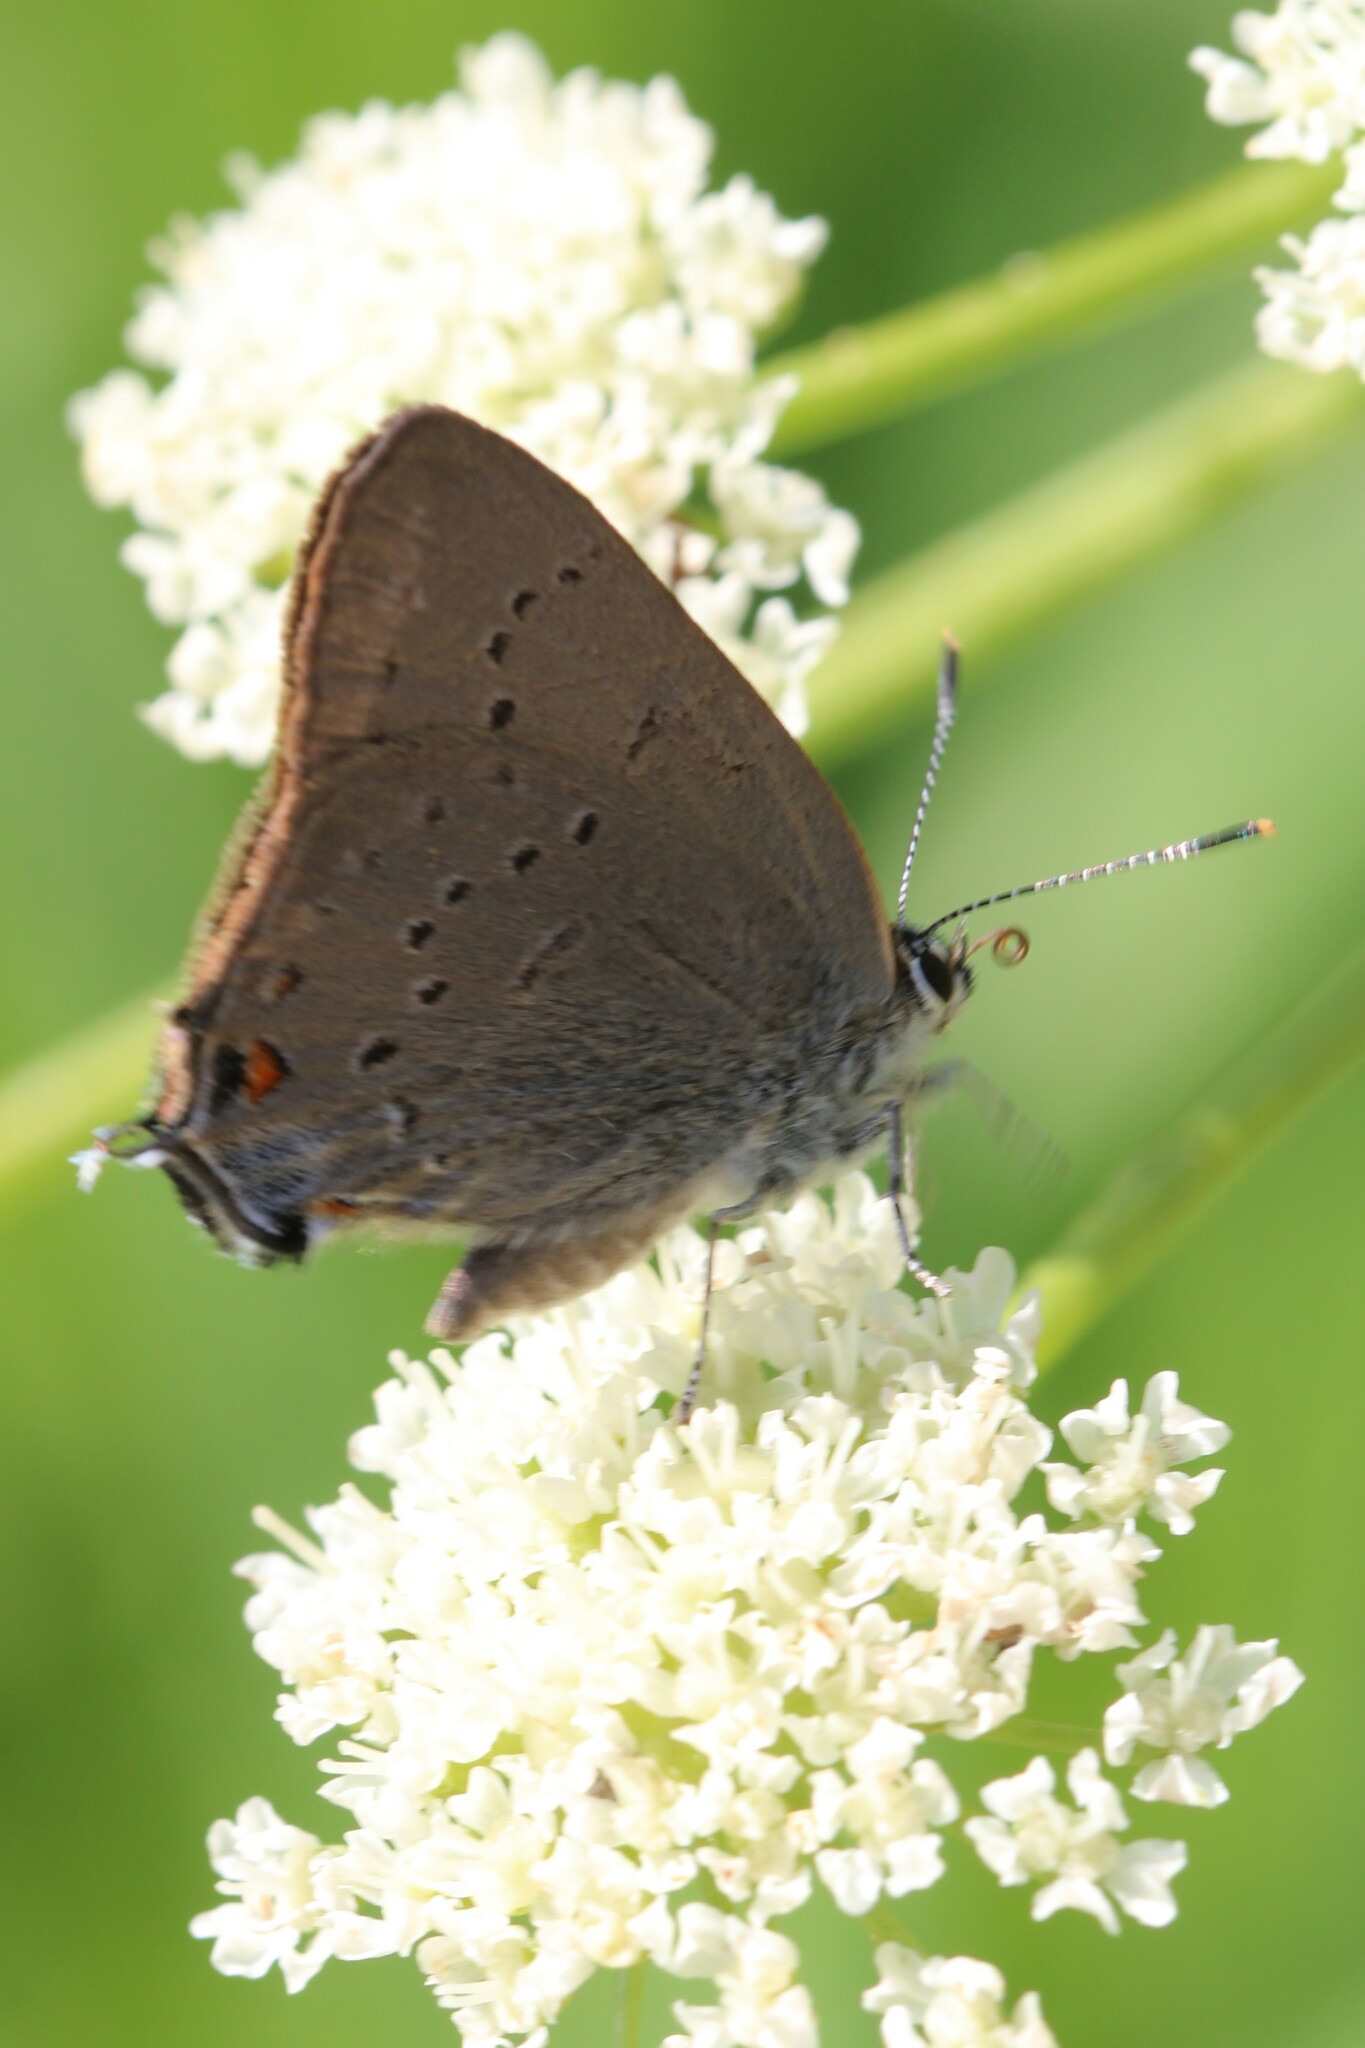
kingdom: Animalia
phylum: Arthropoda
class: Insecta
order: Lepidoptera
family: Lycaenidae
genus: Strymon
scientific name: Strymon sylvinus
